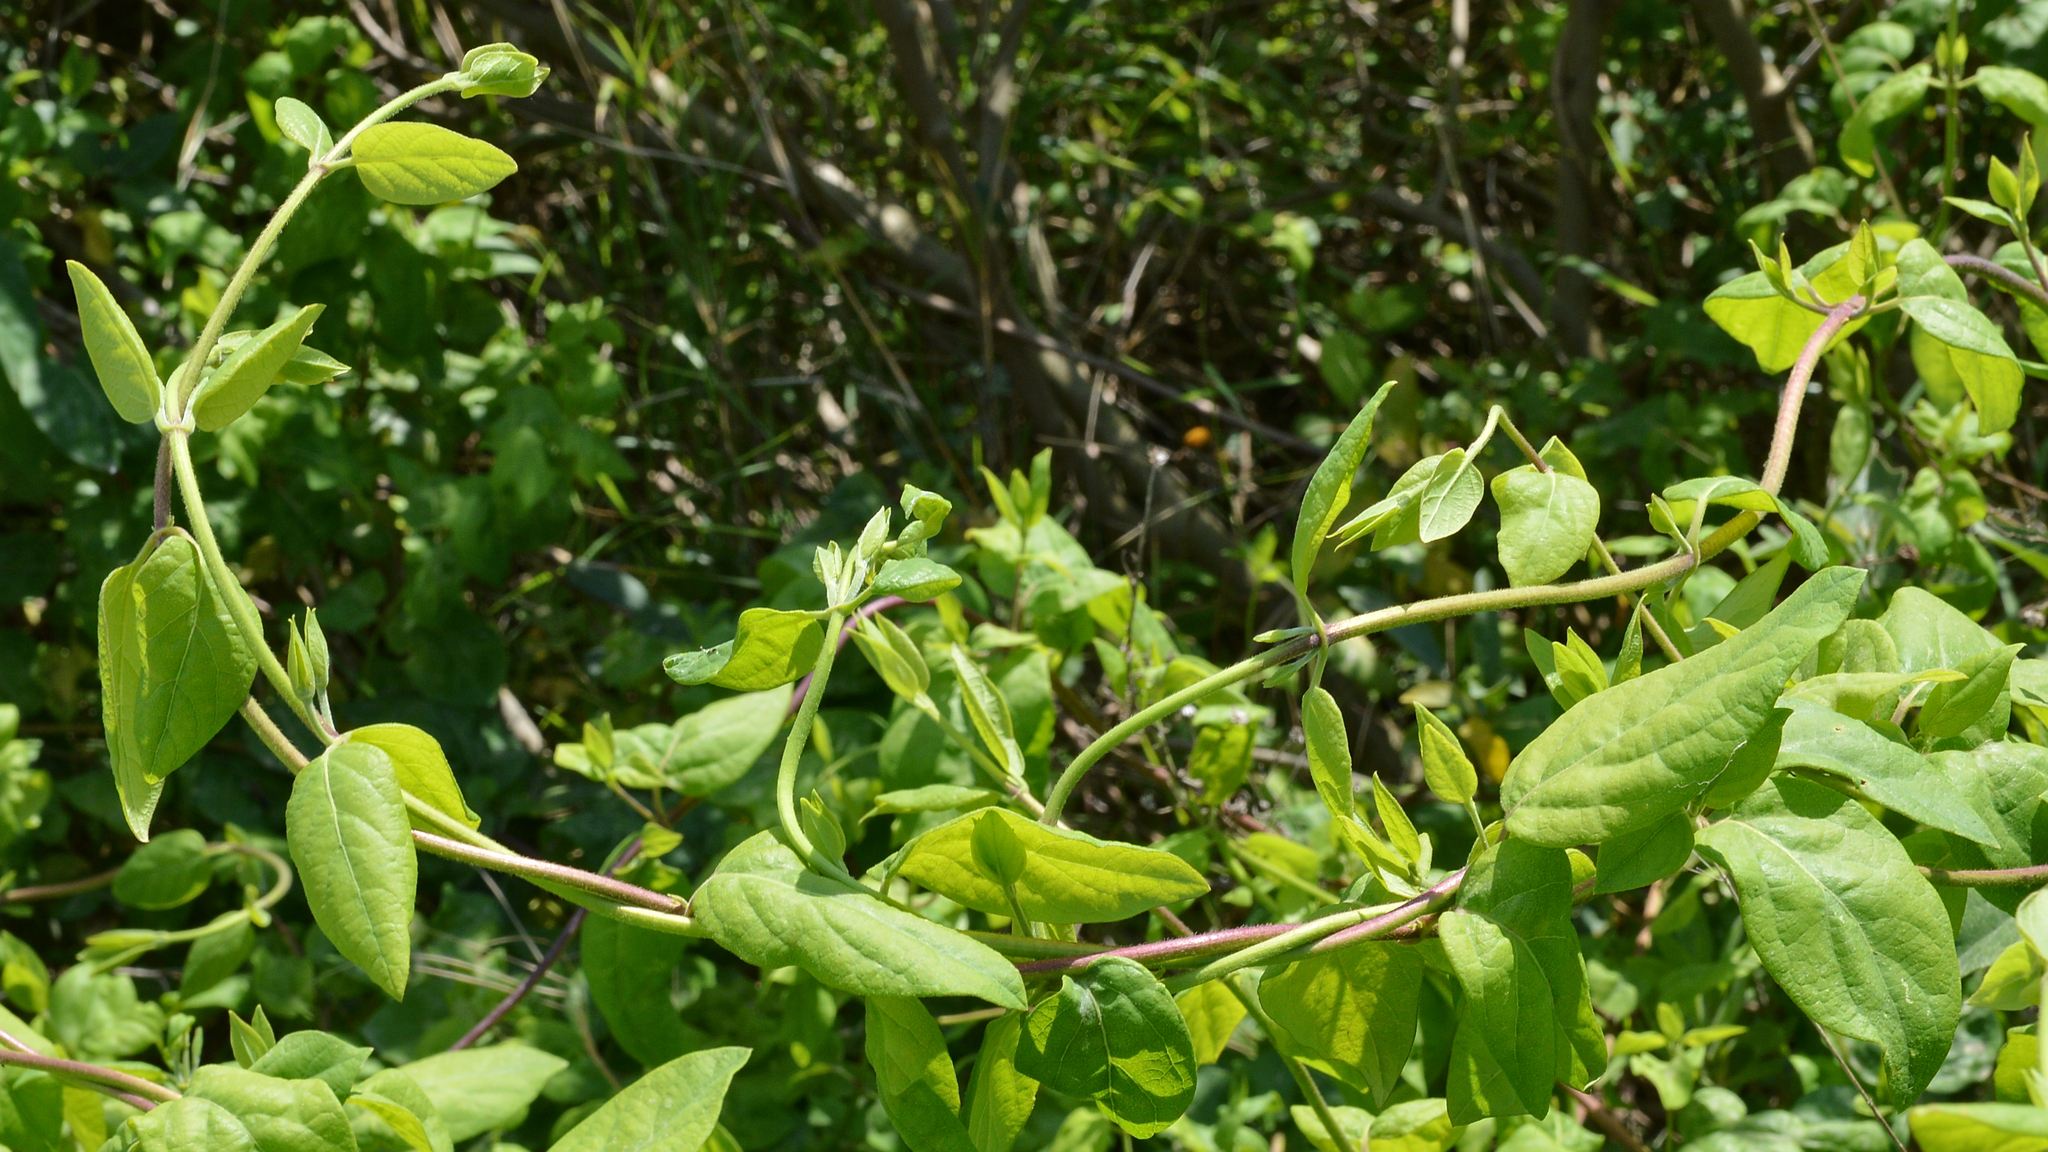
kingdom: Plantae
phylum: Tracheophyta
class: Magnoliopsida
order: Dipsacales
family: Caprifoliaceae
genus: Lonicera
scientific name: Lonicera japonica
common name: Japanese honeysuckle
